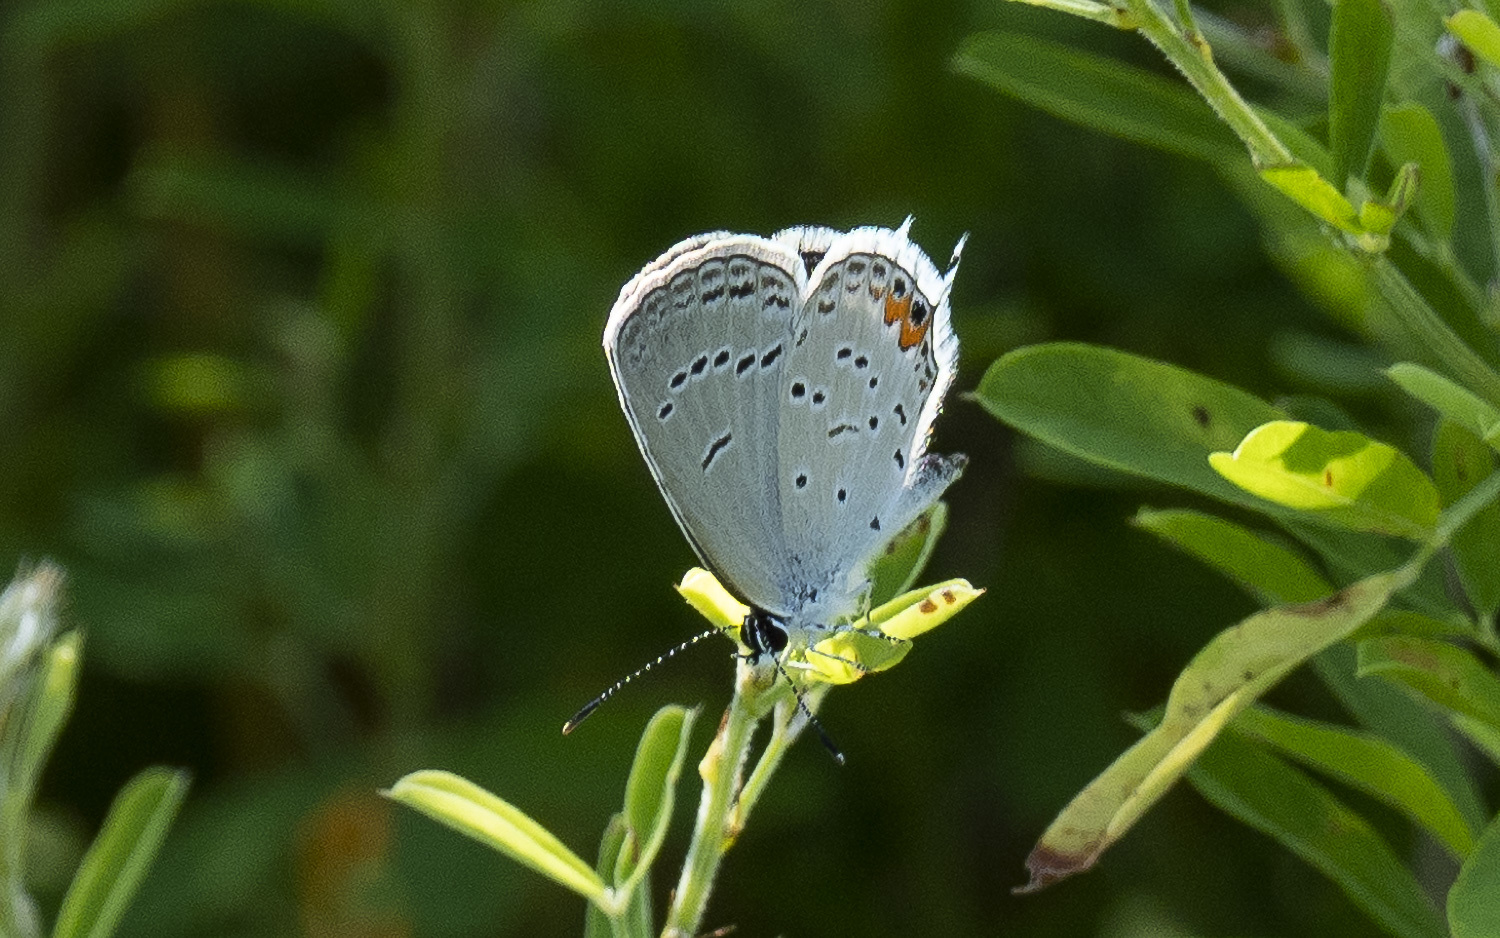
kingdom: Animalia
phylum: Arthropoda
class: Insecta
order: Lepidoptera
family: Lycaenidae
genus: Elkalyce
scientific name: Elkalyce comyntas
